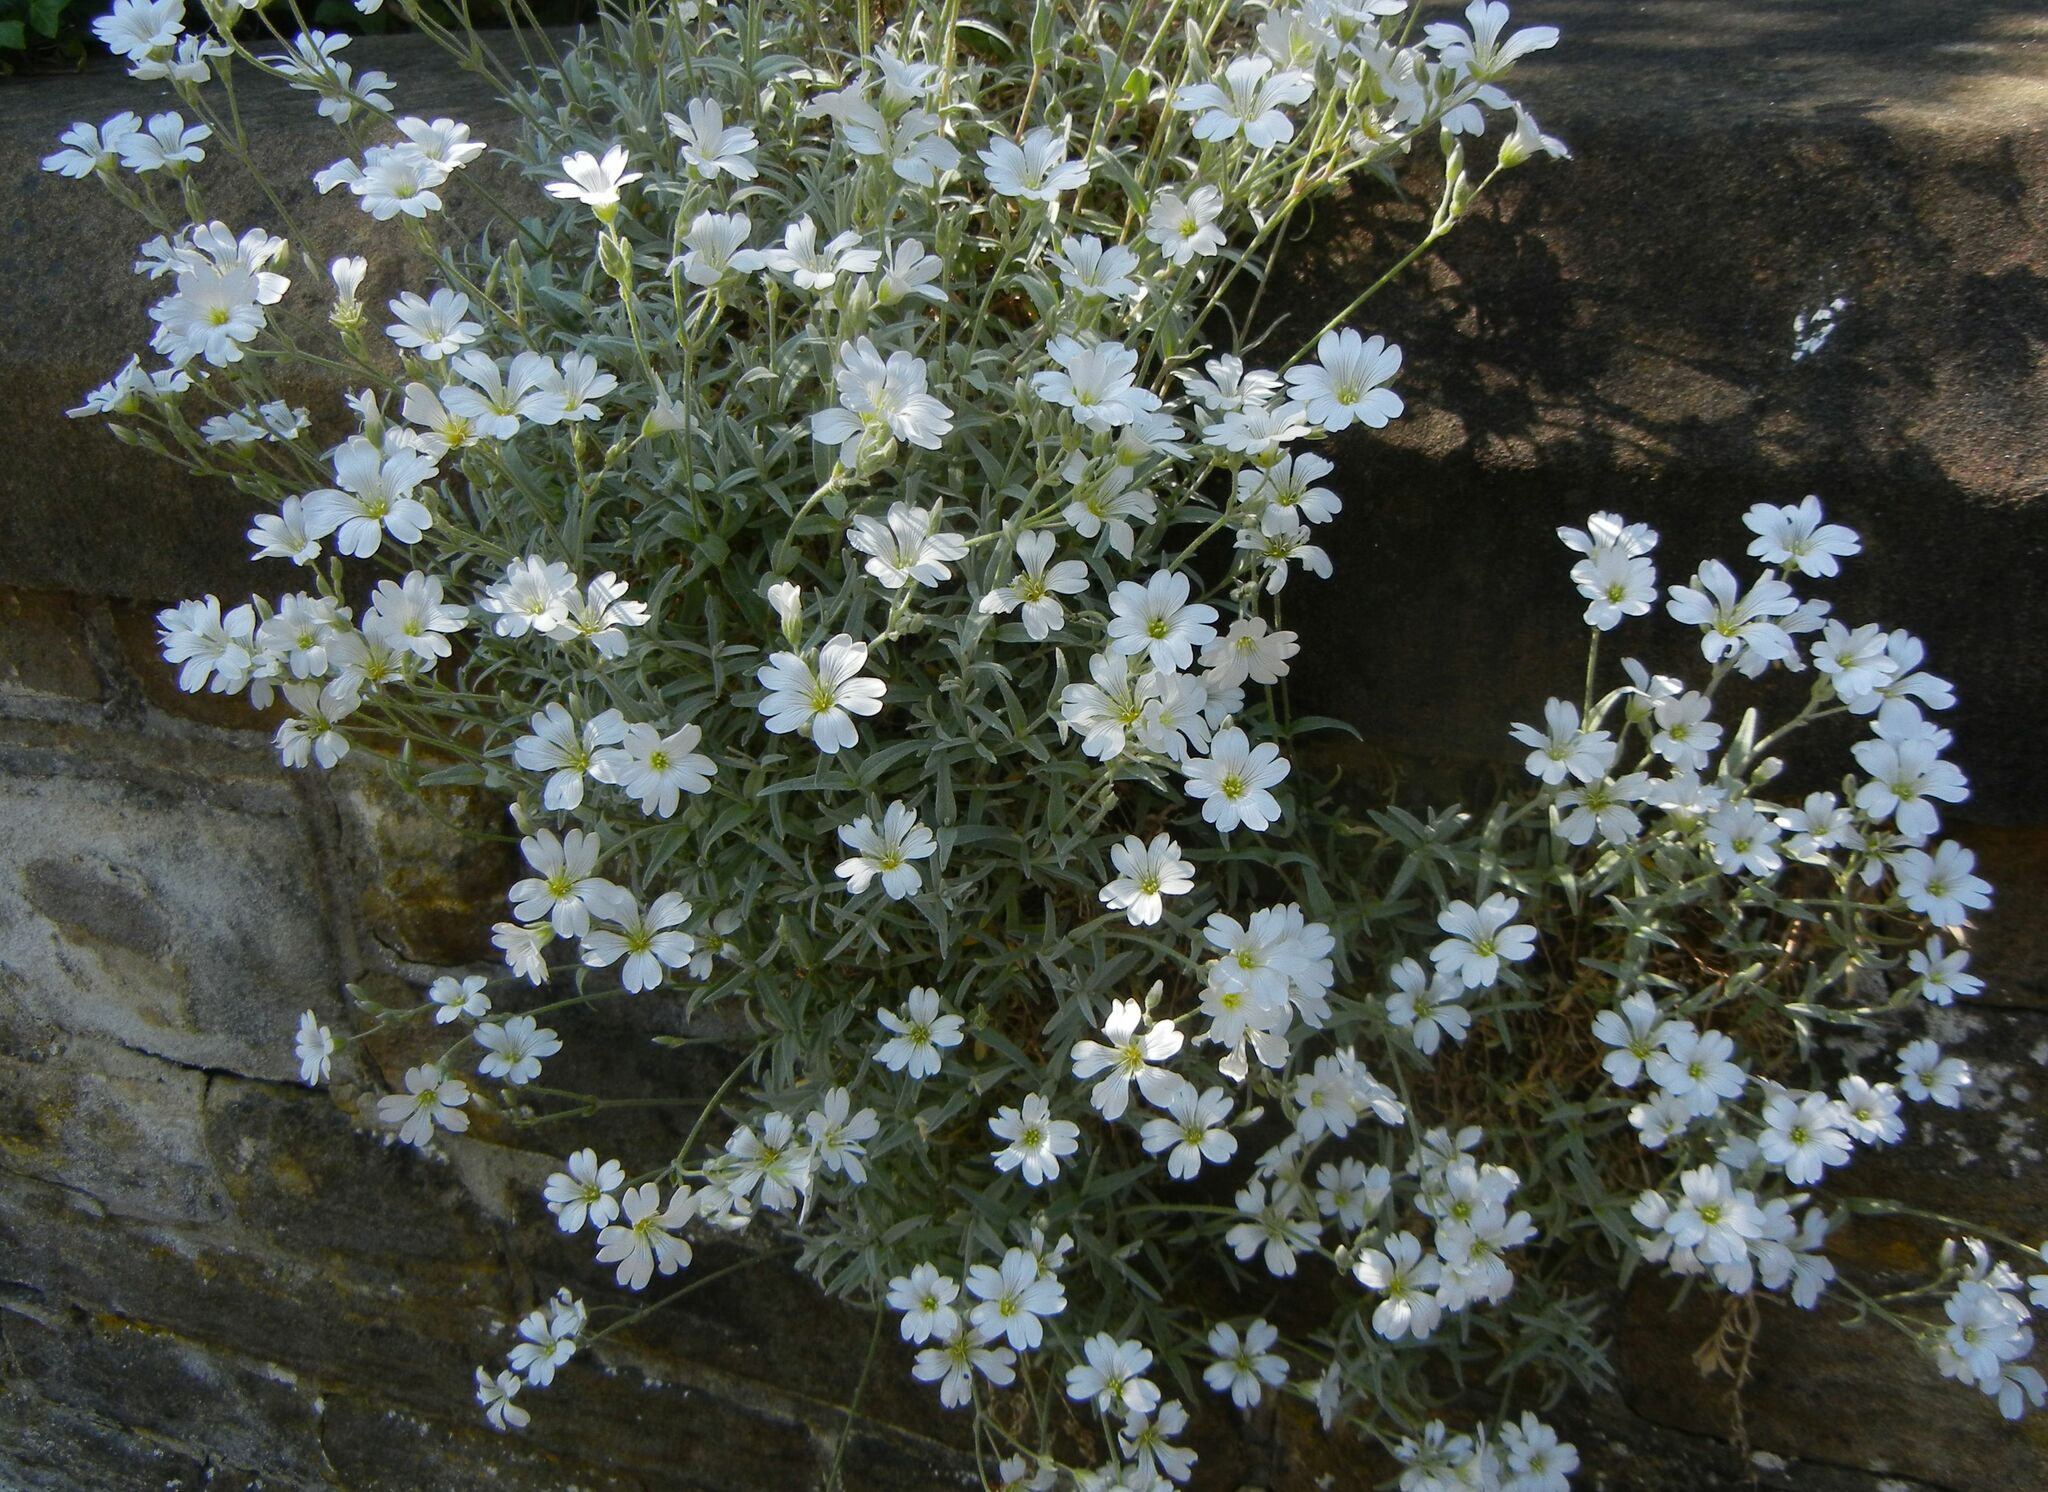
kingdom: Plantae
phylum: Tracheophyta
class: Magnoliopsida
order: Caryophyllales
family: Caryophyllaceae
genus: Cerastium
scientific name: Cerastium tomentosum
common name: Snow-in-summer
